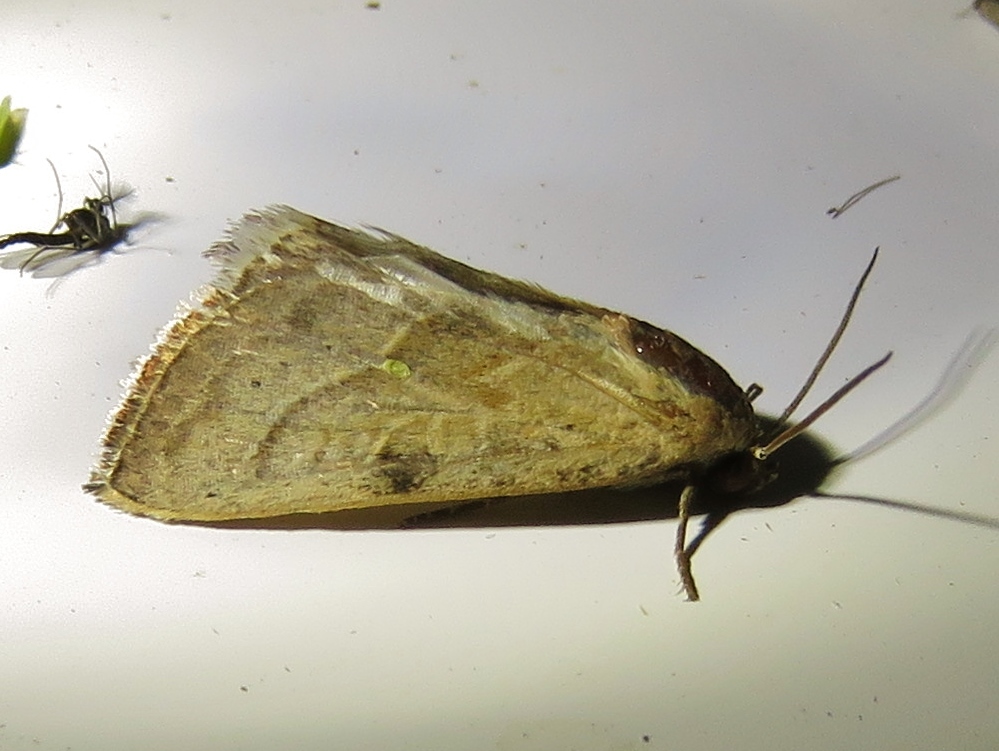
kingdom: Animalia
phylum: Arthropoda
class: Insecta
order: Lepidoptera
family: Noctuidae
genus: Galgula
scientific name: Galgula partita
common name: Wedgeling
